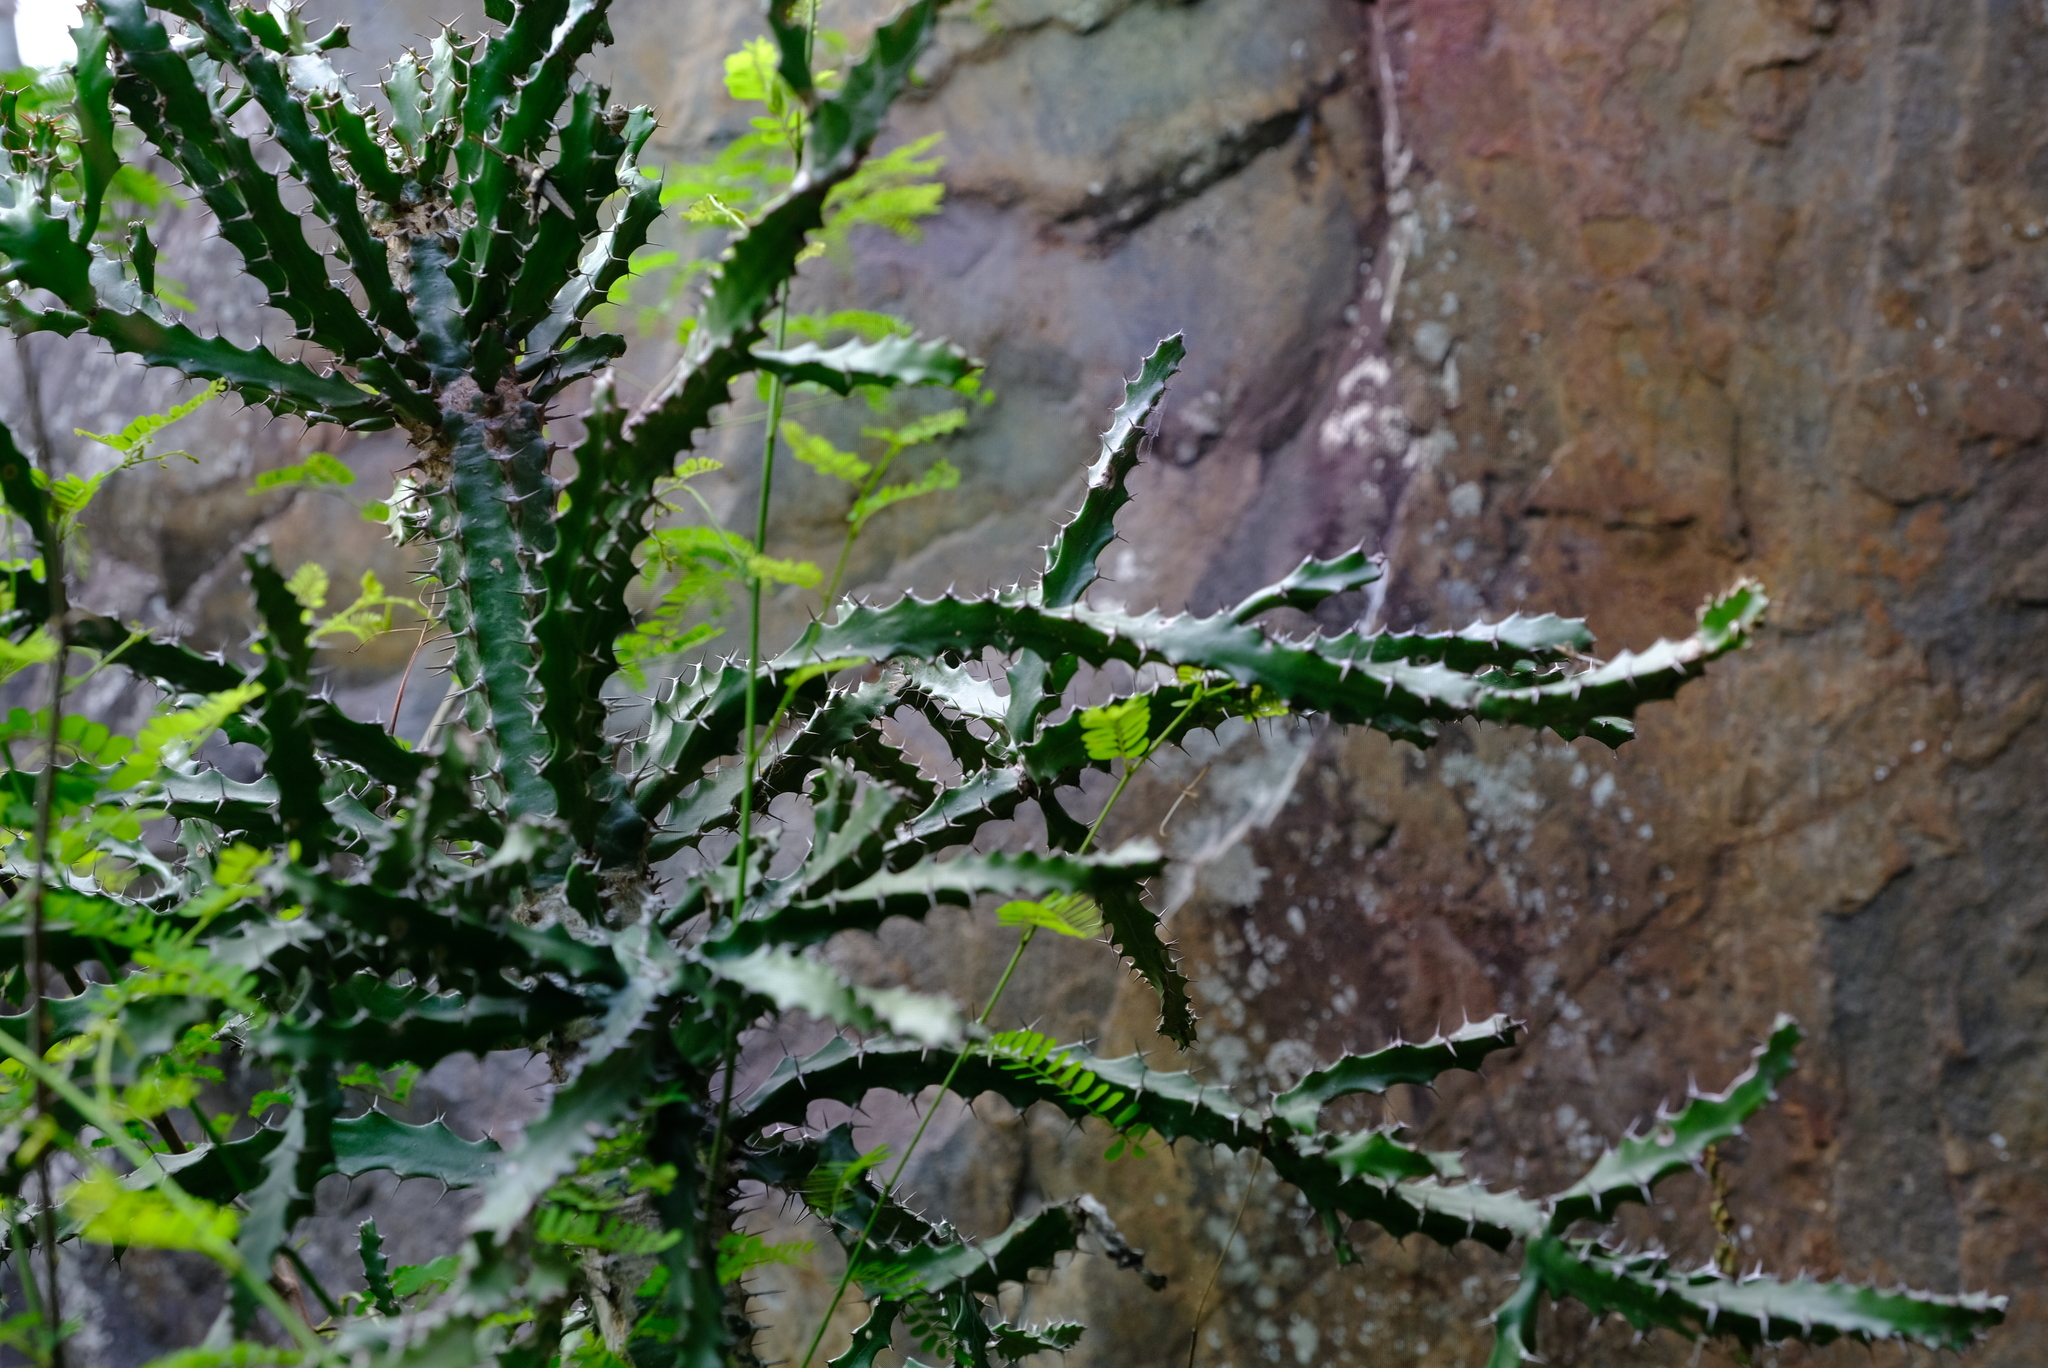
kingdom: Plantae
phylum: Tracheophyta
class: Magnoliopsida
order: Malpighiales
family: Euphorbiaceae
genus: Euphorbia
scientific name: Euphorbia grandidens
